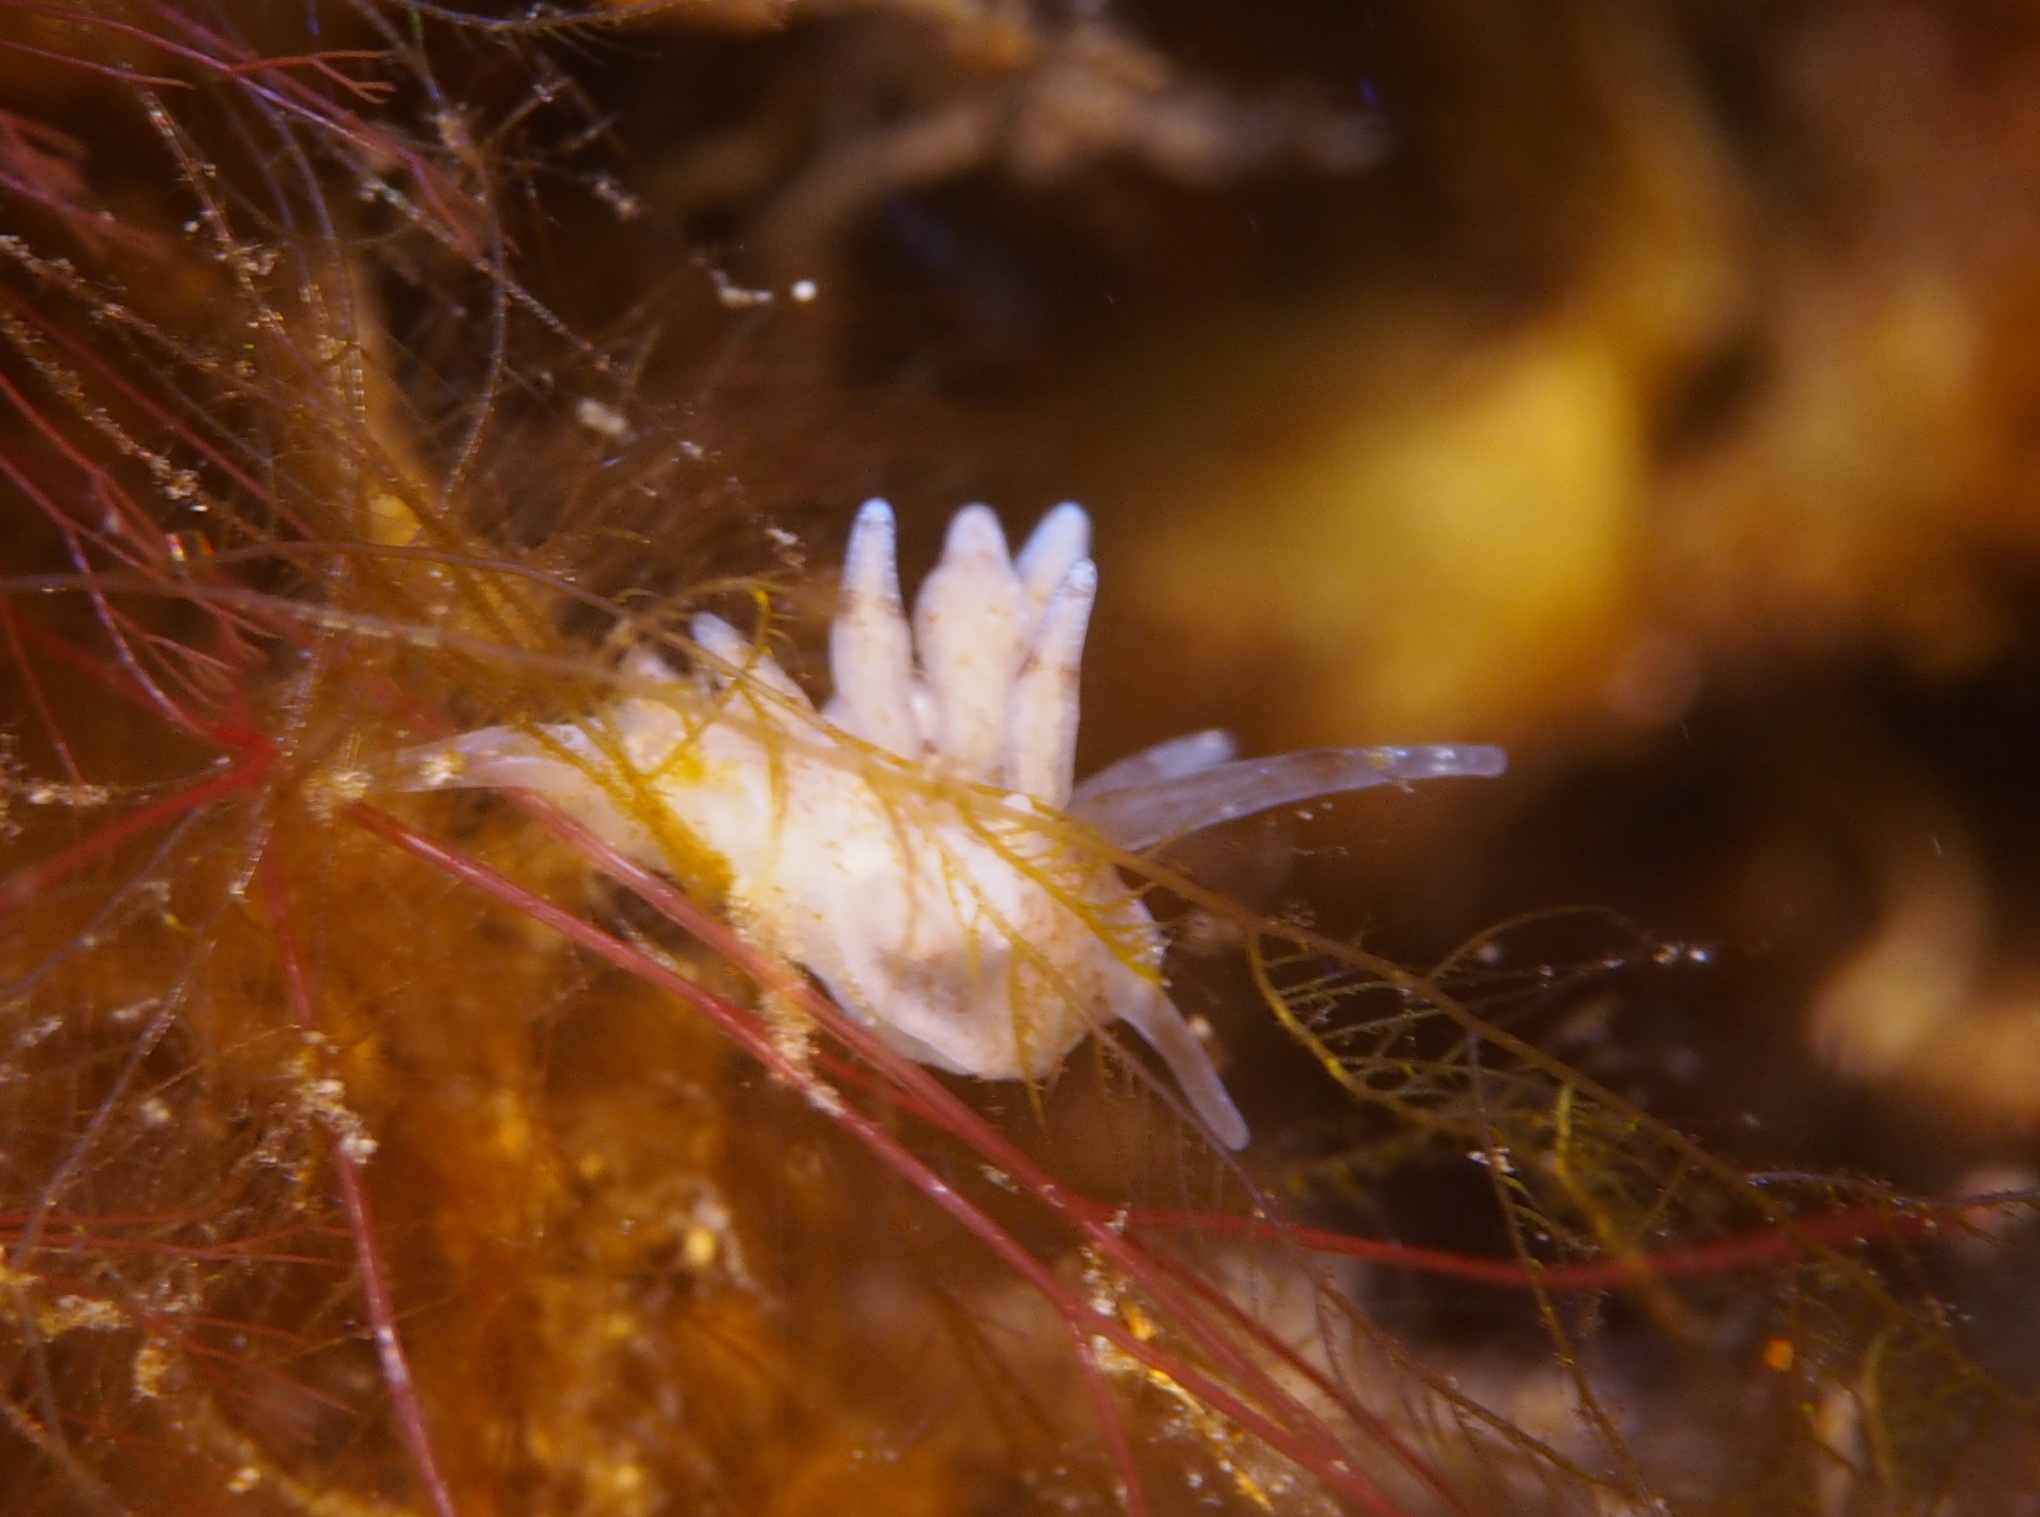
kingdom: Animalia
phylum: Mollusca
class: Gastropoda
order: Nudibranchia
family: Eubranchidae
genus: Eubranchus
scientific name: Eubranchus rupium
